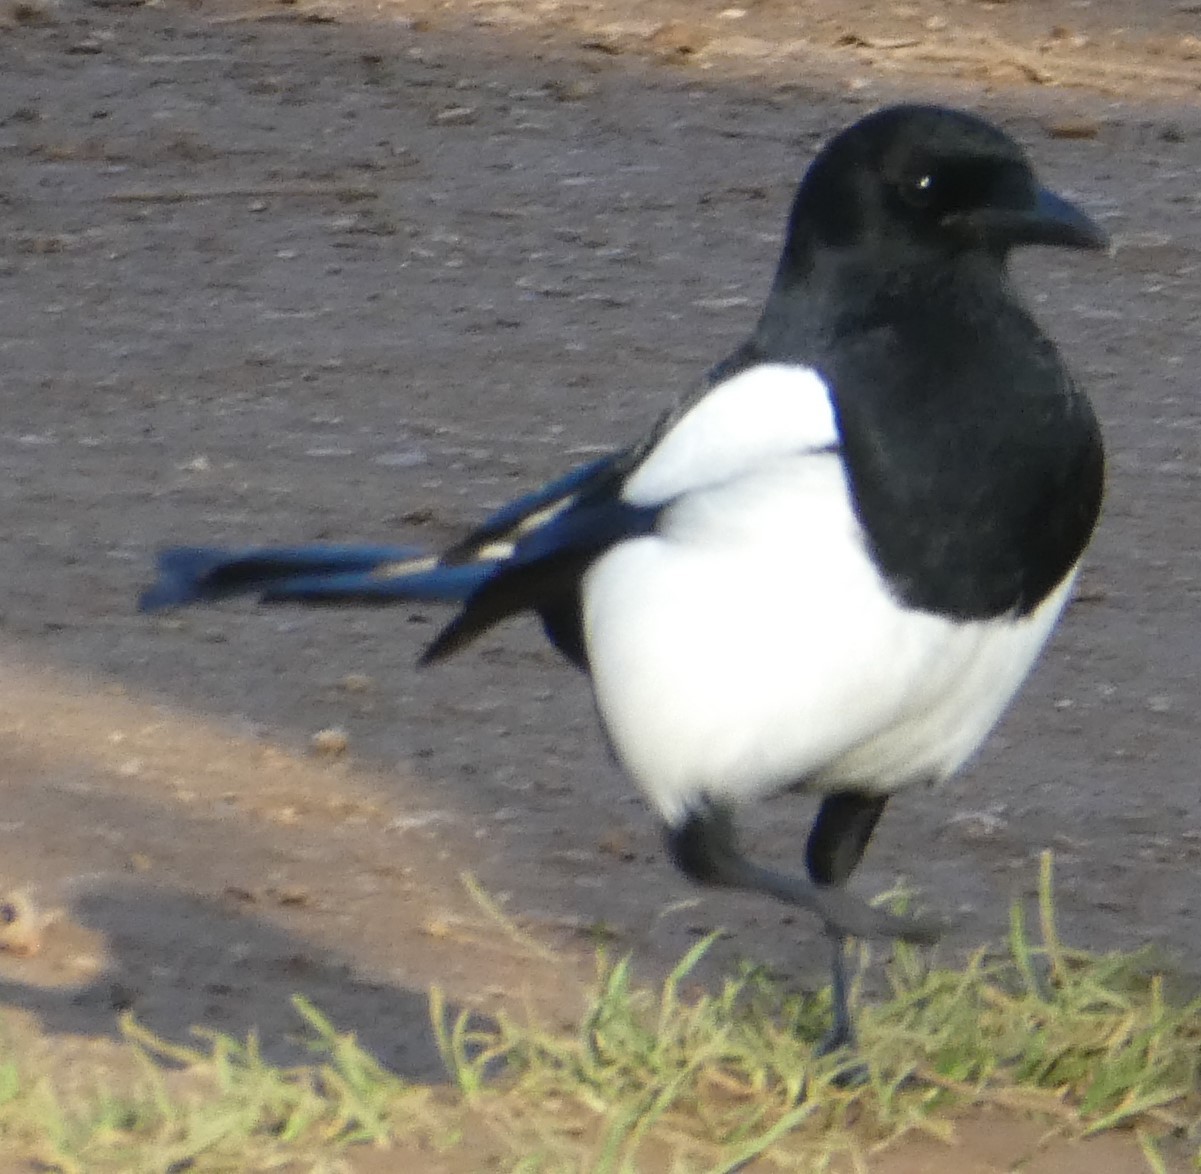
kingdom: Animalia
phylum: Chordata
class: Aves
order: Passeriformes
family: Corvidae
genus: Pica
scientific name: Pica pica
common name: Eurasian magpie
